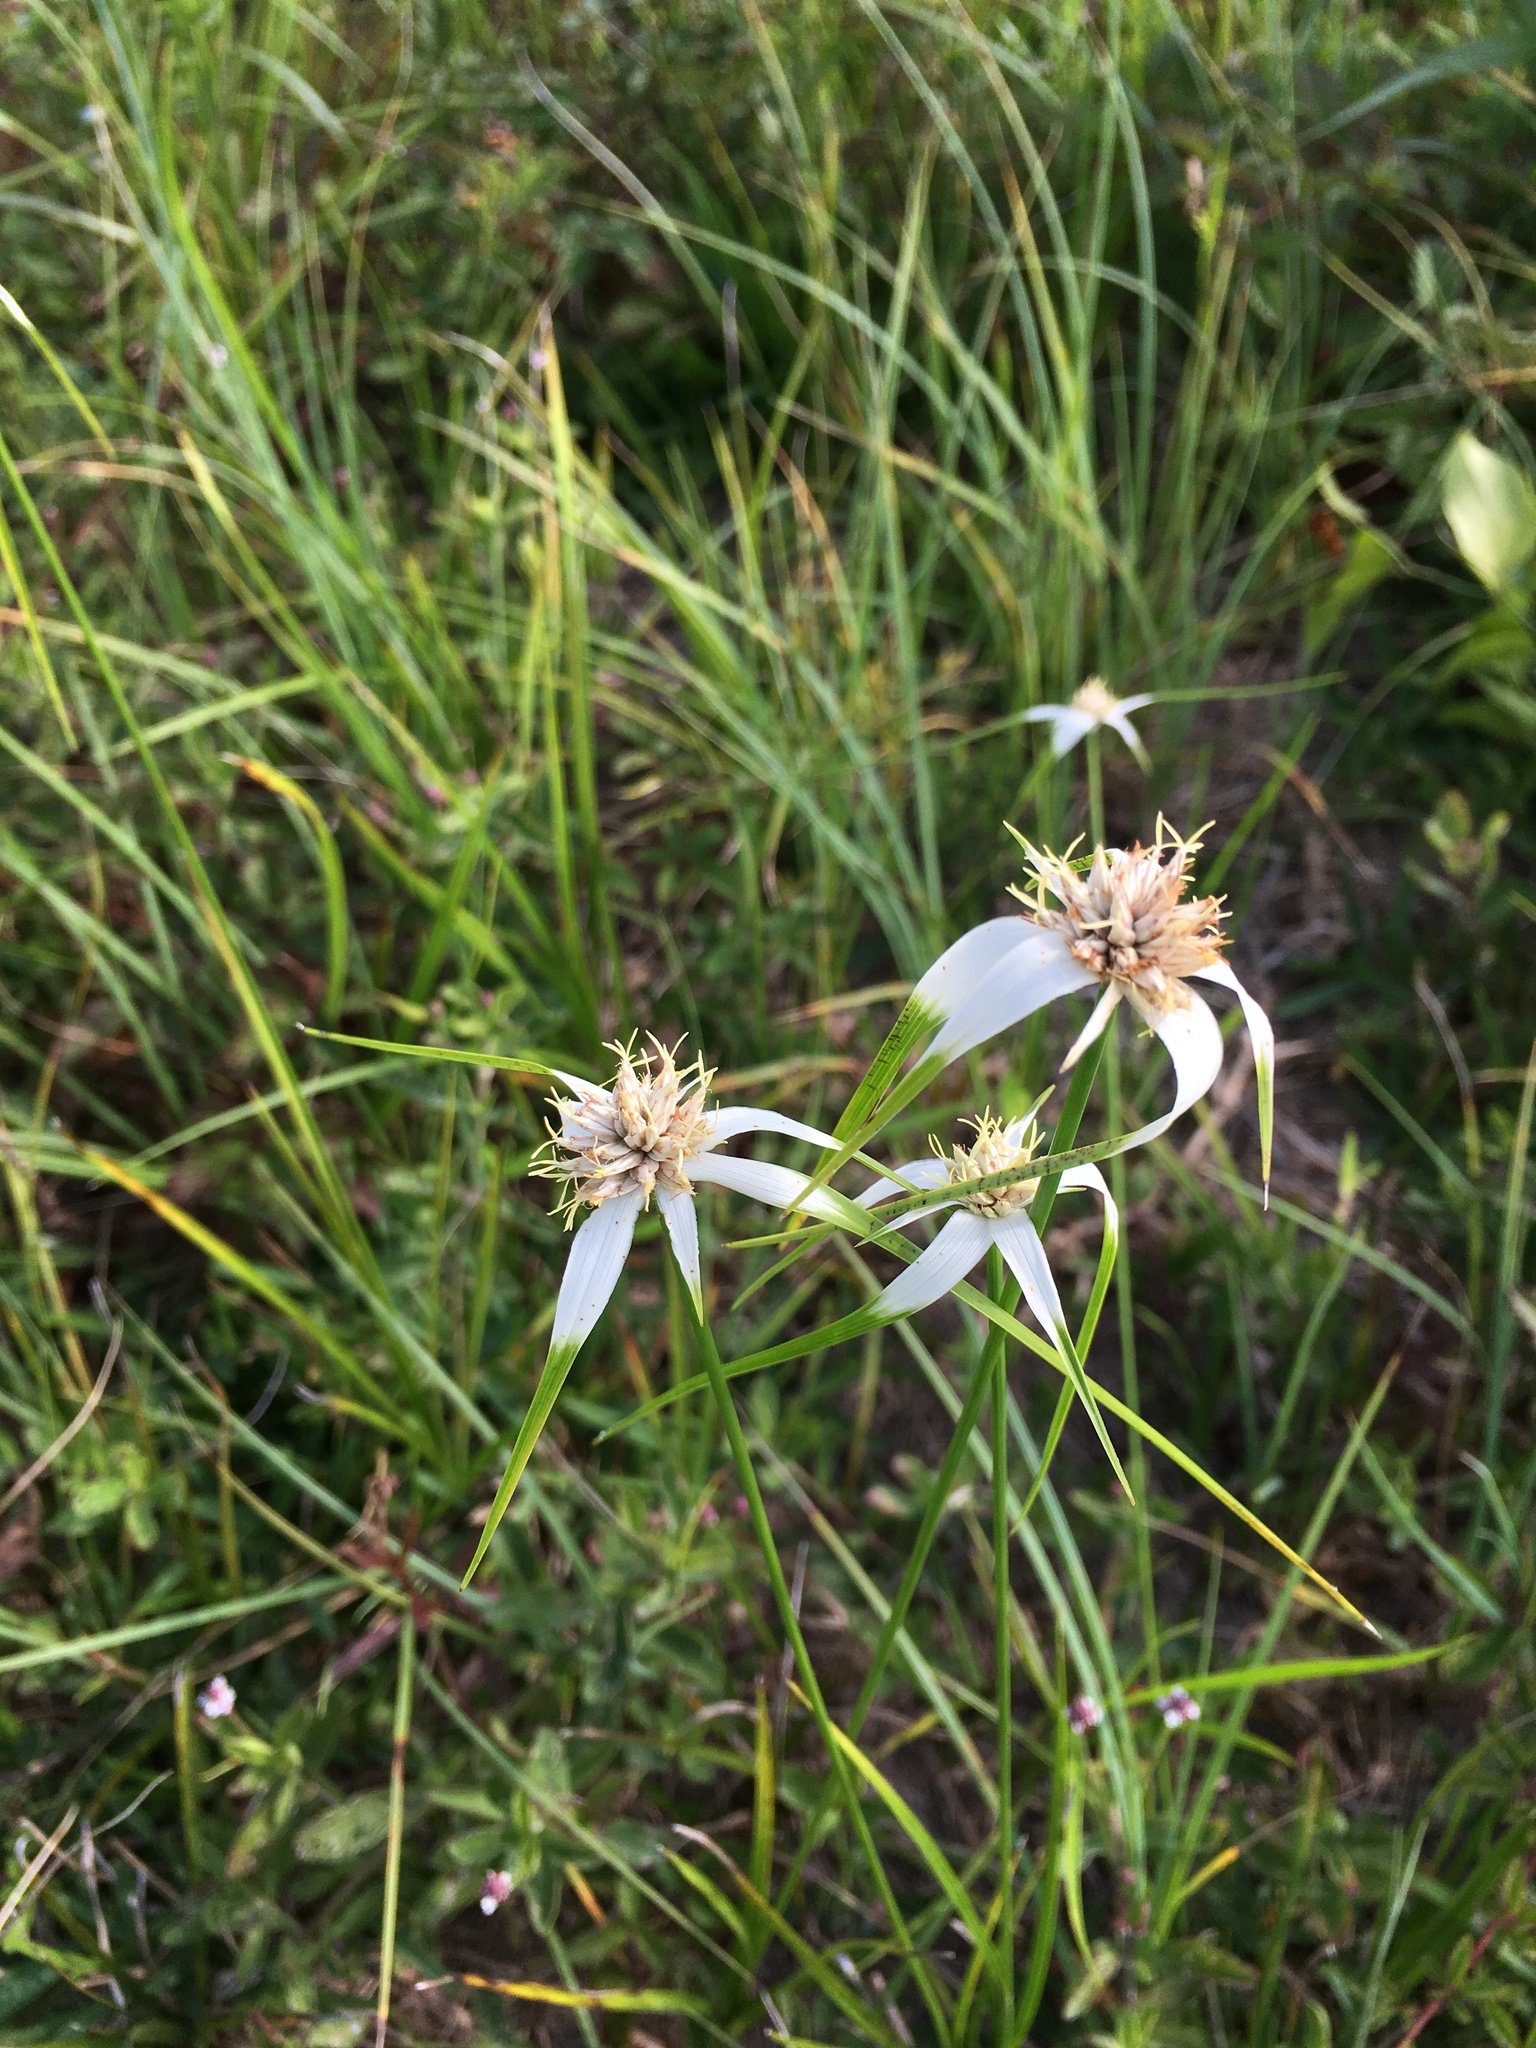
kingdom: Plantae
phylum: Tracheophyta
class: Liliopsida
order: Poales
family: Cyperaceae
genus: Rhynchospora
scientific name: Rhynchospora colorata
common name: Star sedge
